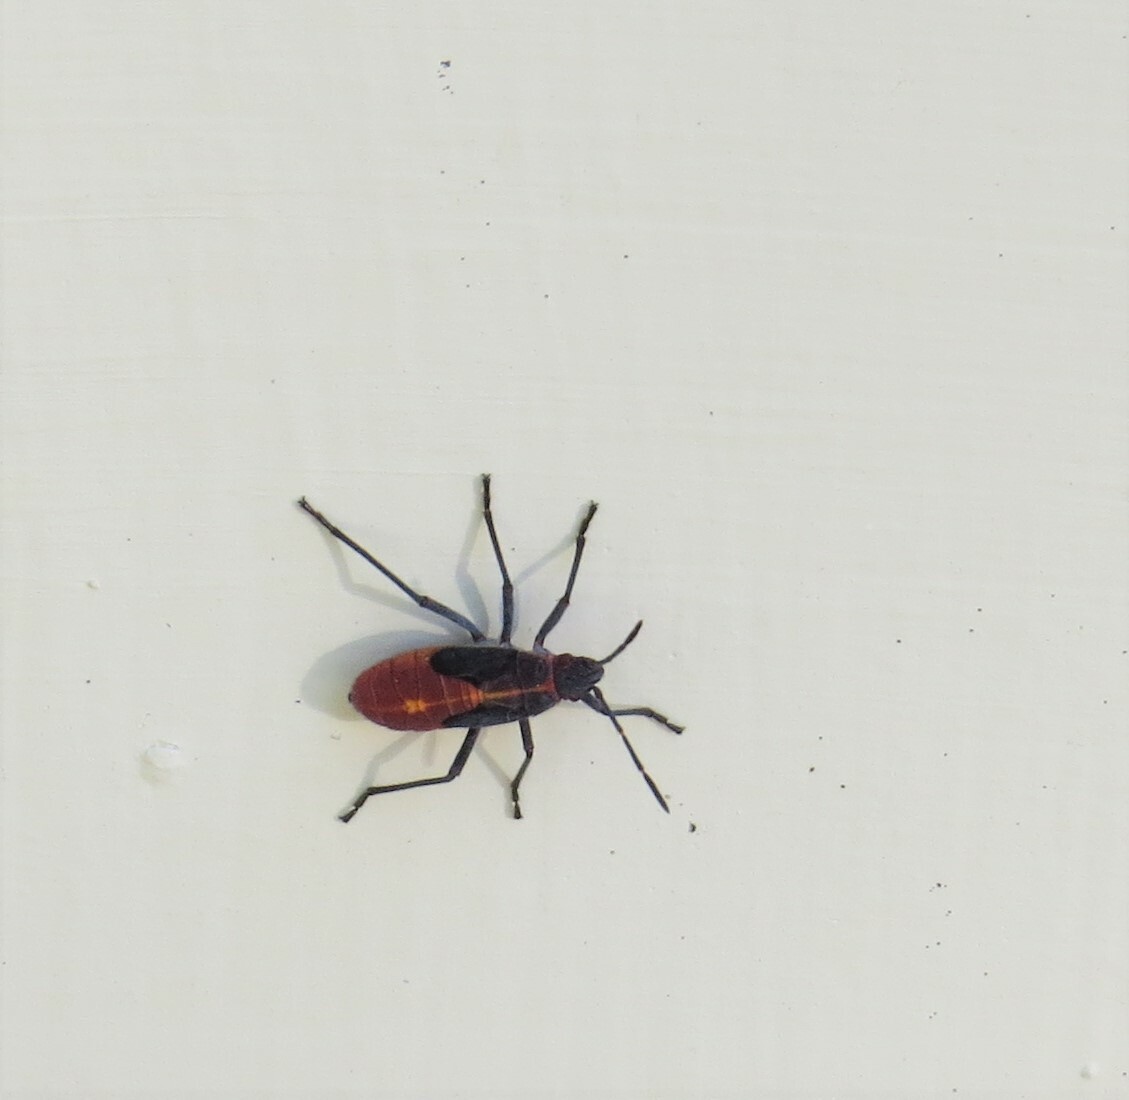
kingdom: Animalia
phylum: Arthropoda
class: Insecta
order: Hemiptera
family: Rhopalidae
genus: Boisea
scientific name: Boisea trivittata
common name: Boxelder bug
